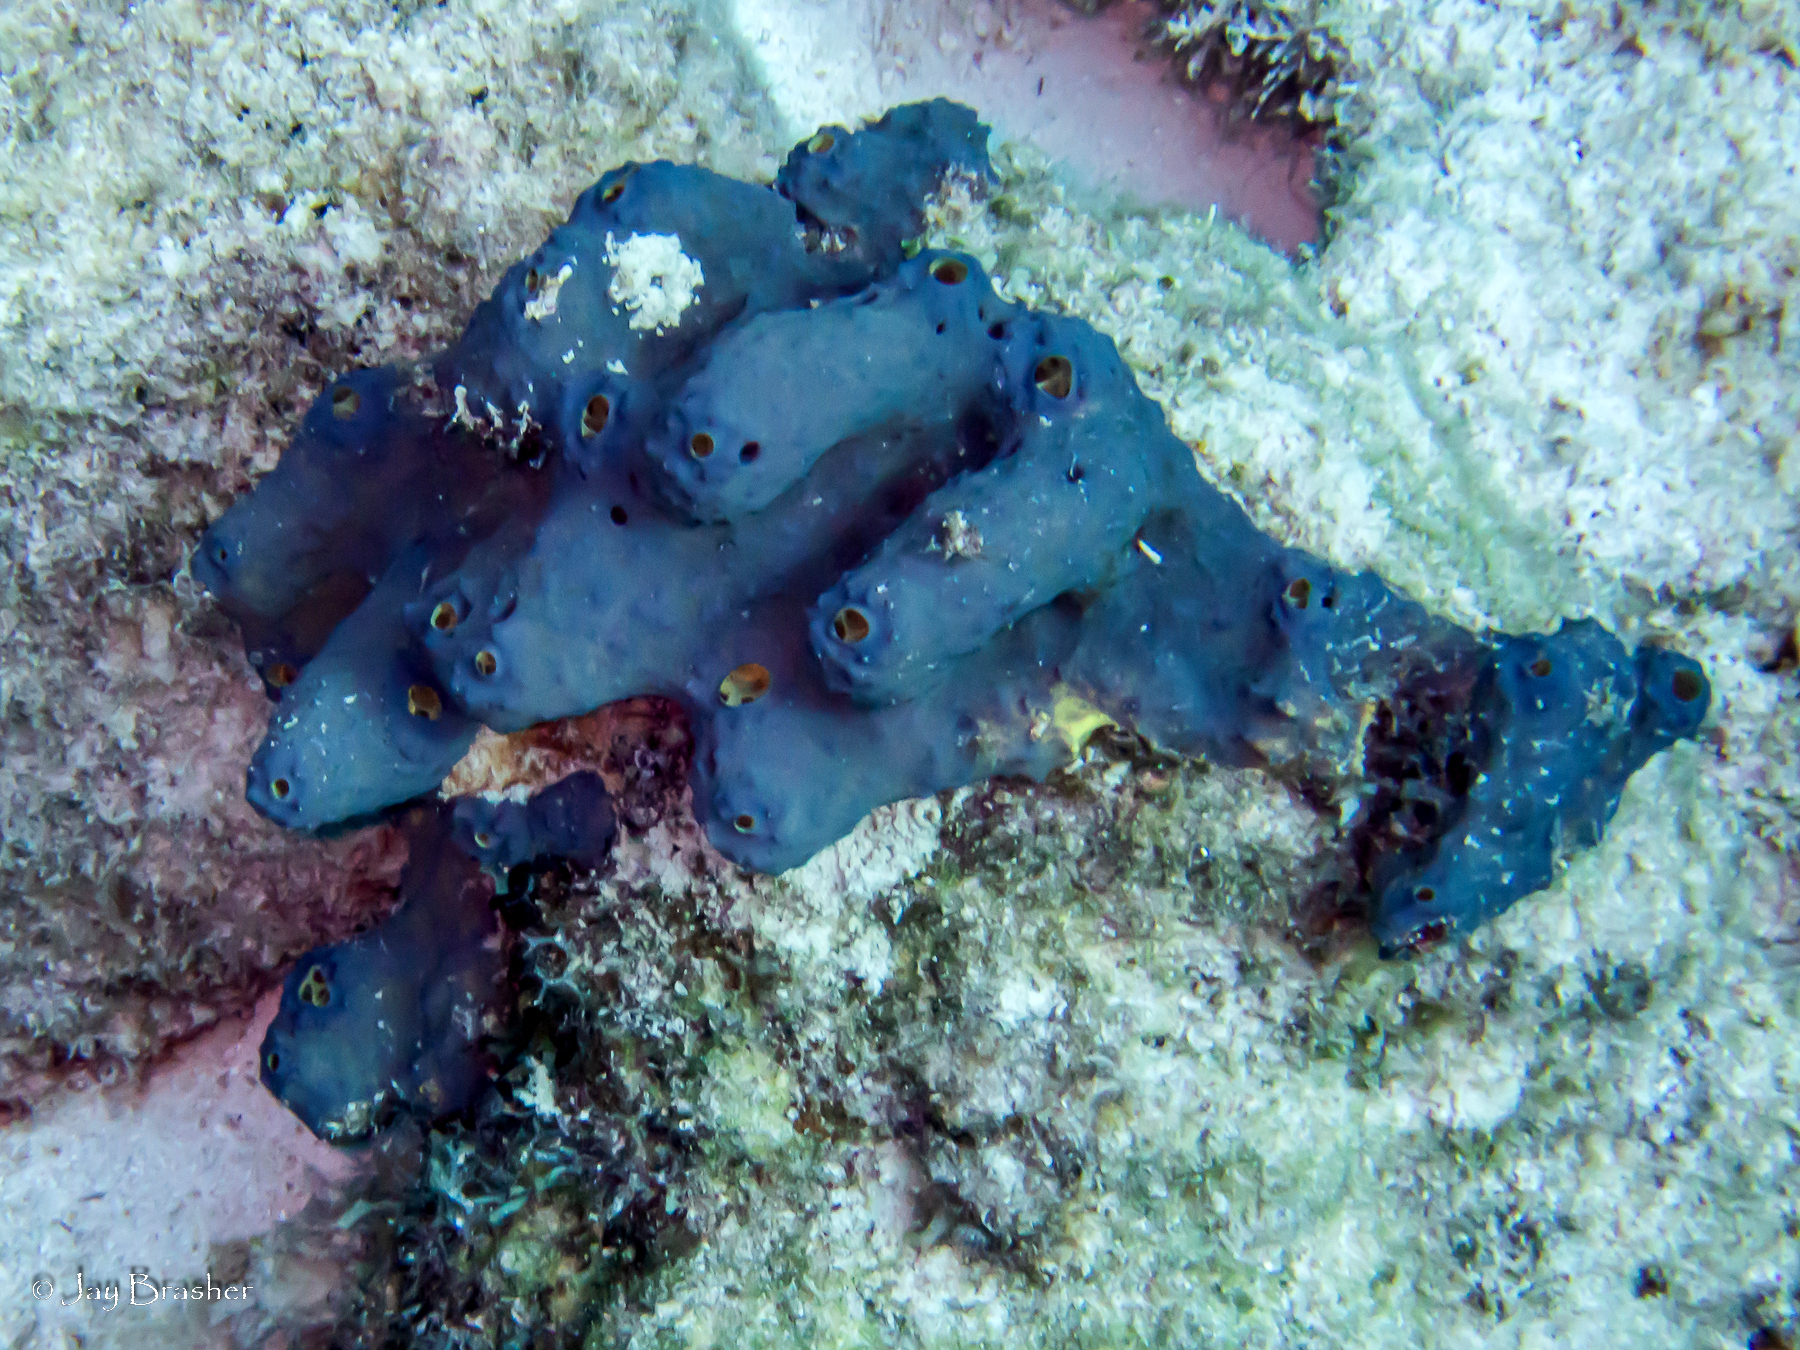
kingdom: Animalia
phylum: Porifera
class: Demospongiae
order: Verongiida
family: Aplysinidae
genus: Aiolochroia
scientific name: Aiolochroia crassa
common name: Branching tube sponge
